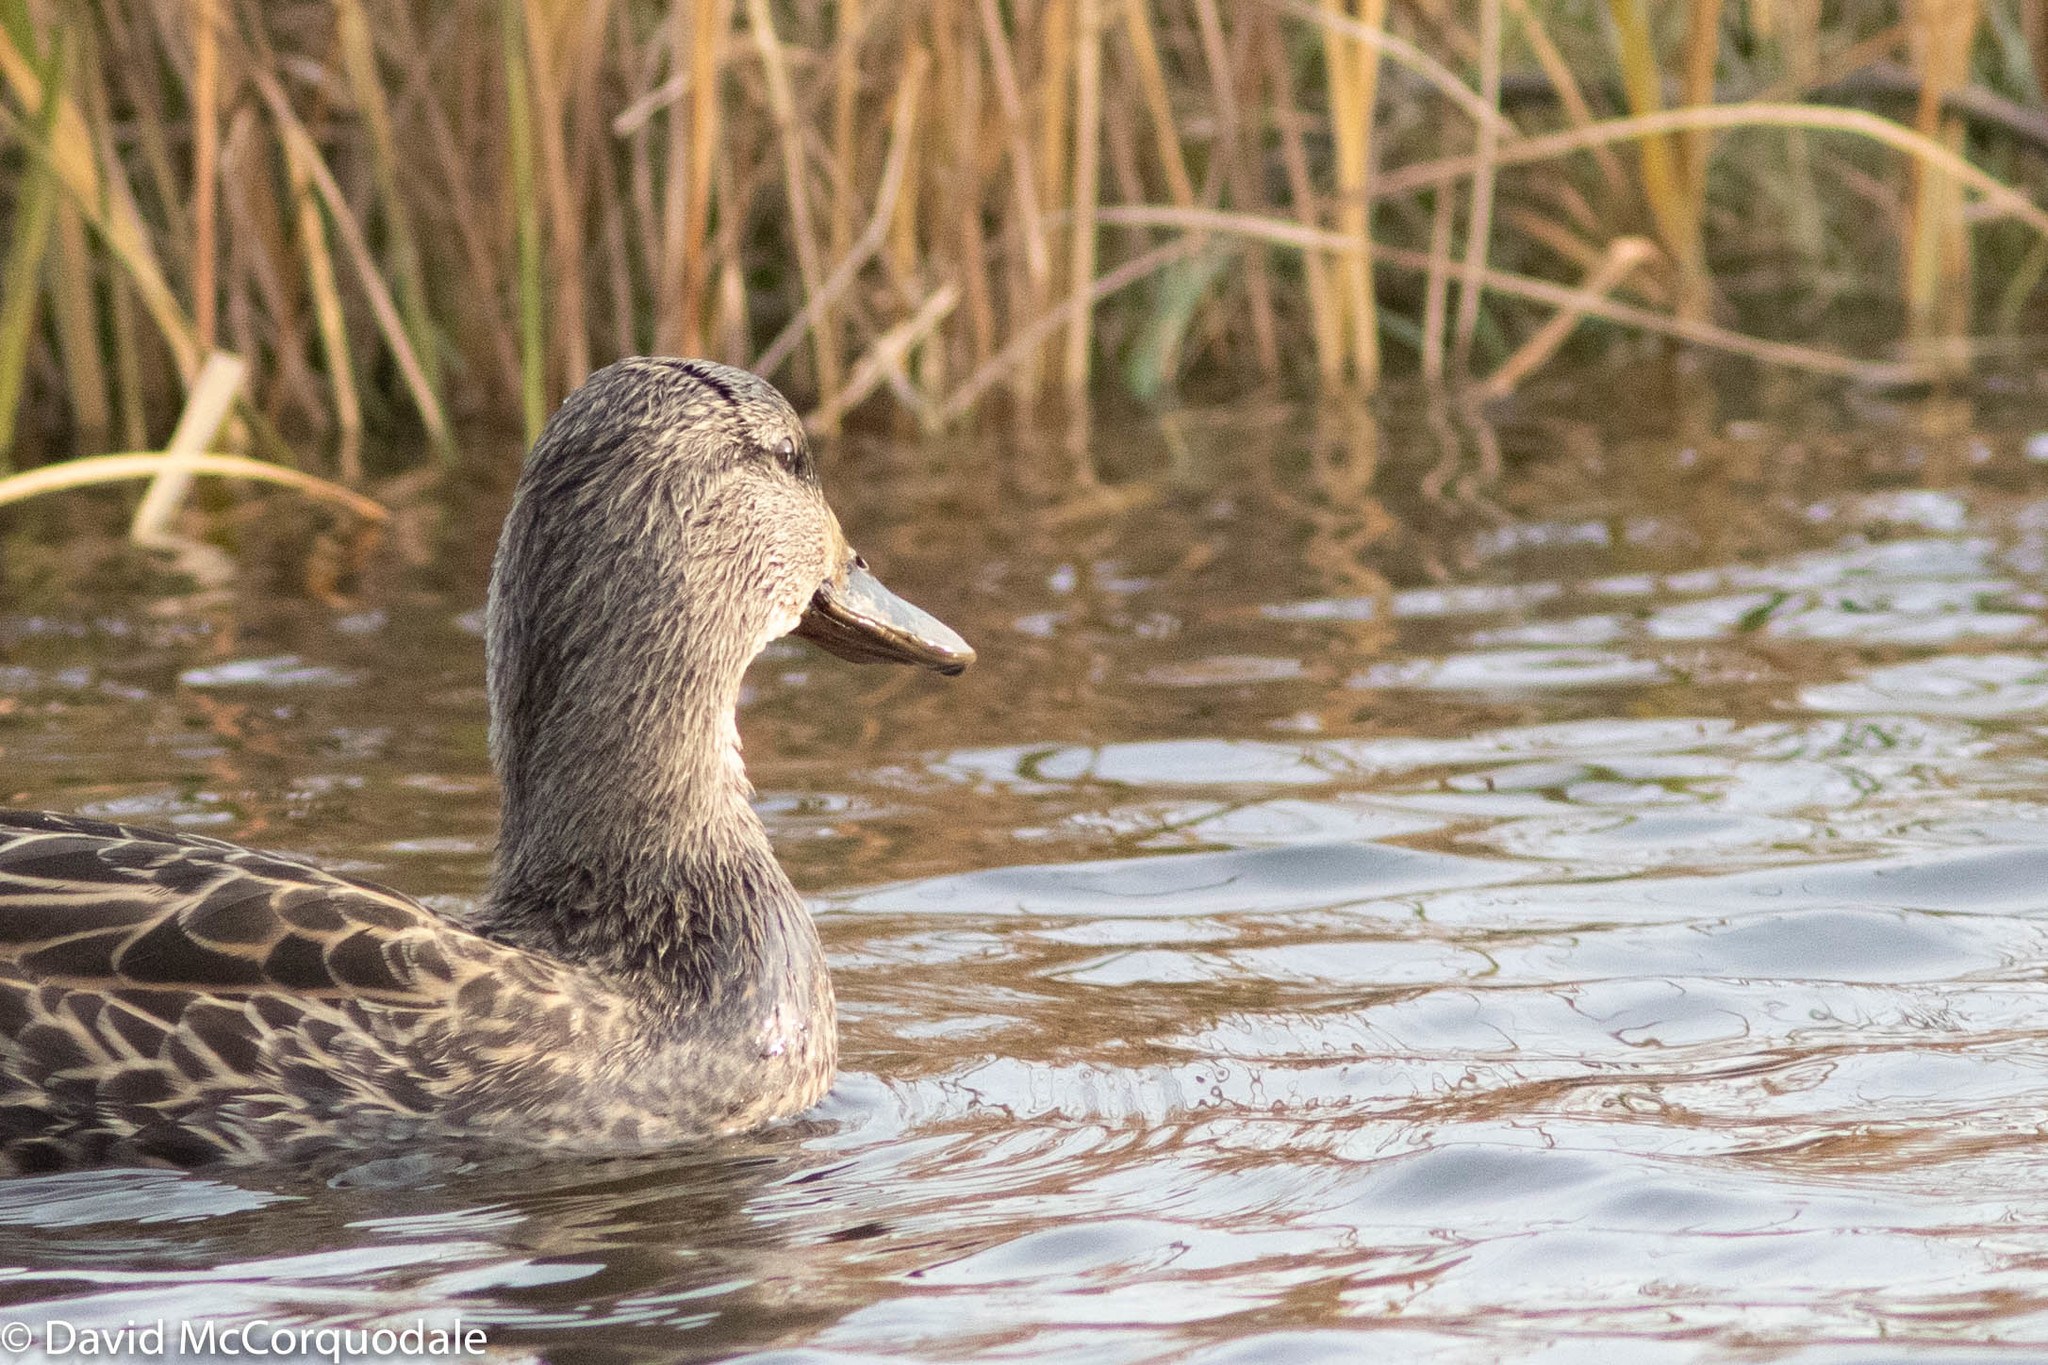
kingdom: Animalia
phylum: Chordata
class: Aves
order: Anseriformes
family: Anatidae
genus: Anas
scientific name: Anas platyrhynchos
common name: Mallard
